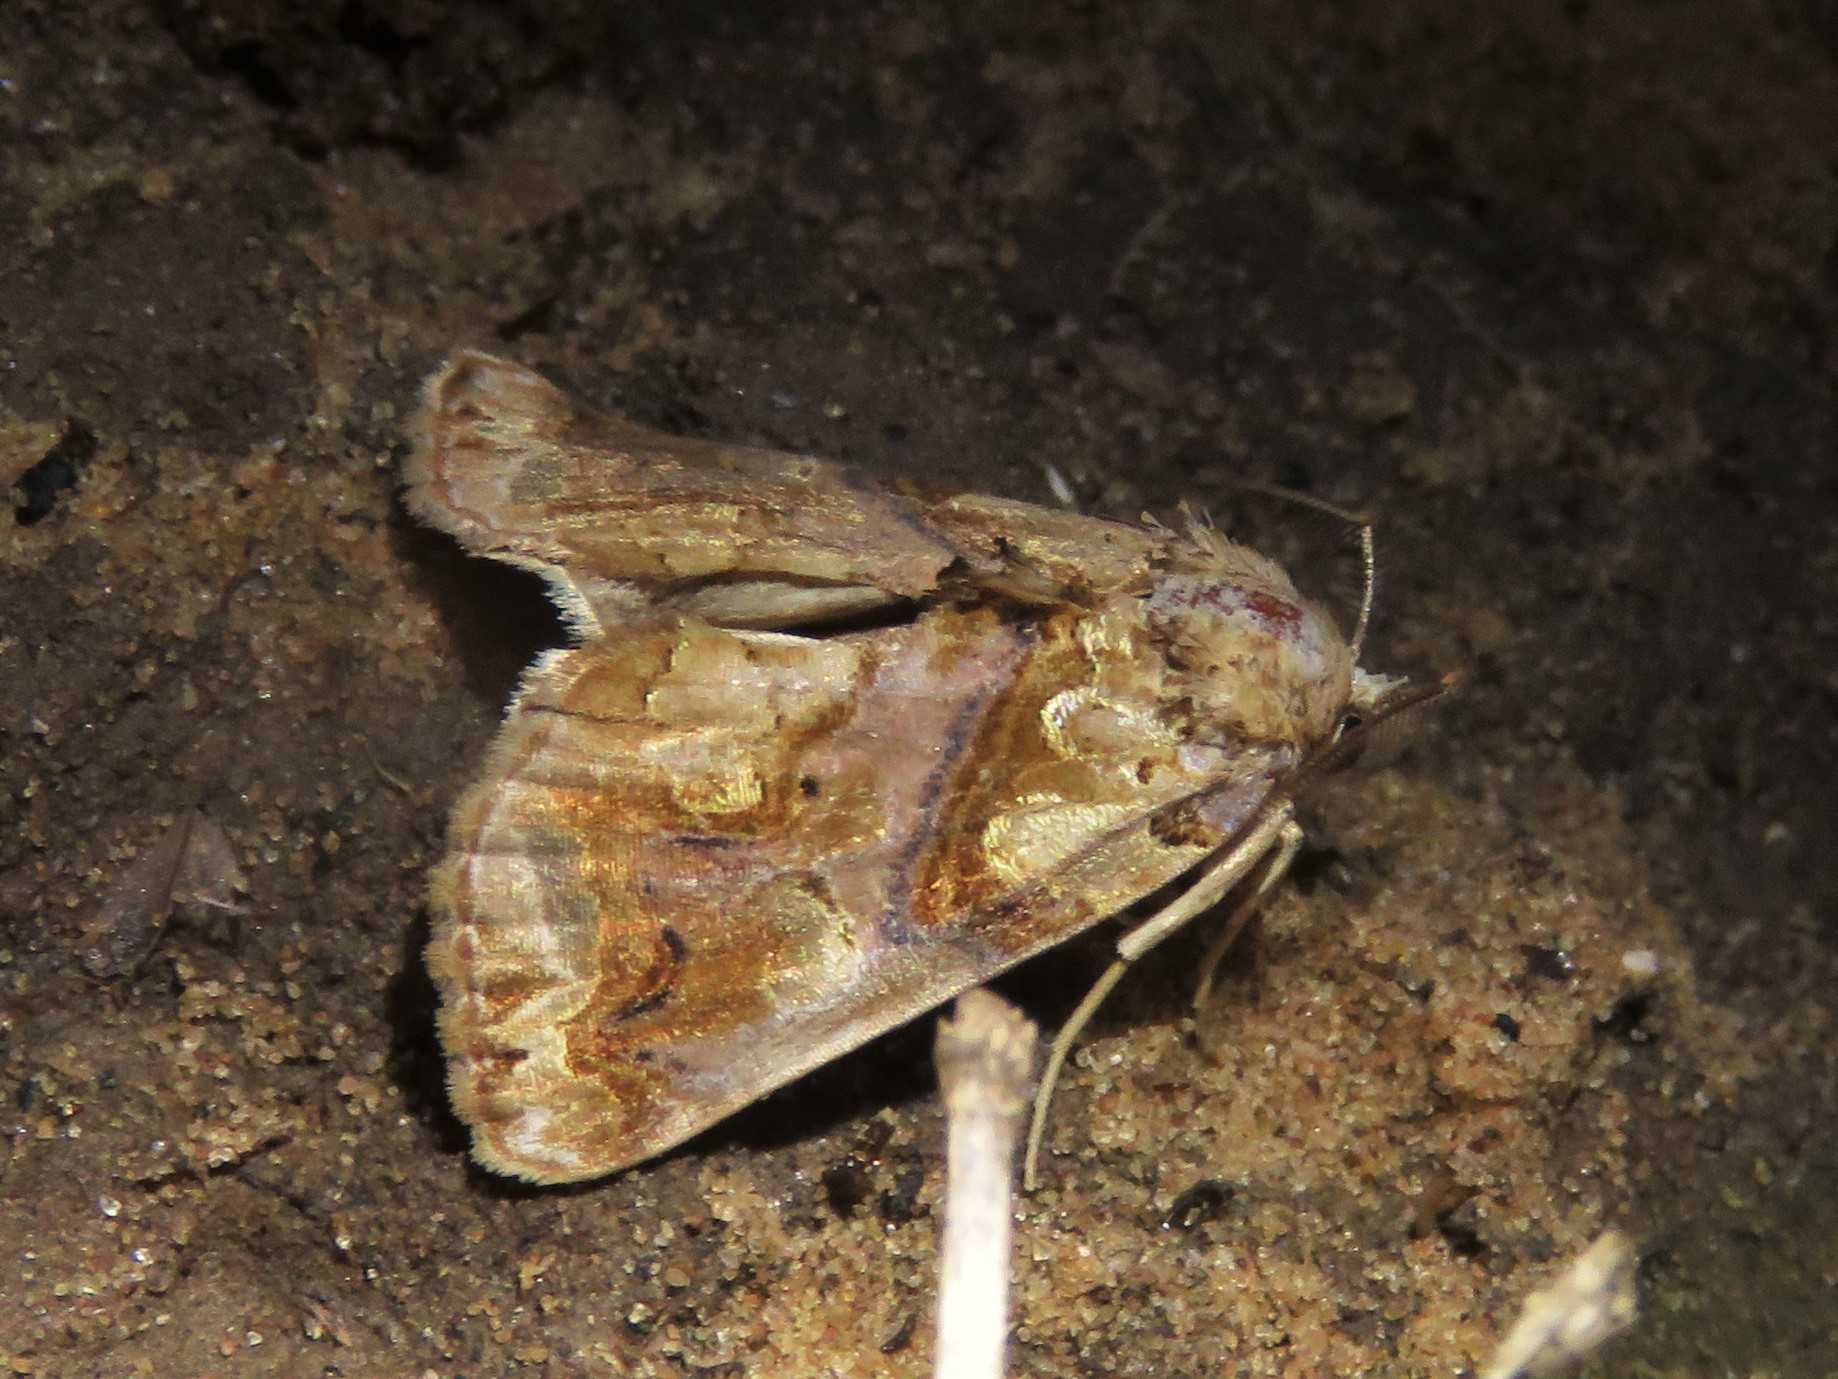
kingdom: Animalia
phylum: Arthropoda
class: Insecta
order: Lepidoptera
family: Erebidae
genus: Plusiodonta
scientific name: Plusiodonta compressipalpis
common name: Moonseed moth
